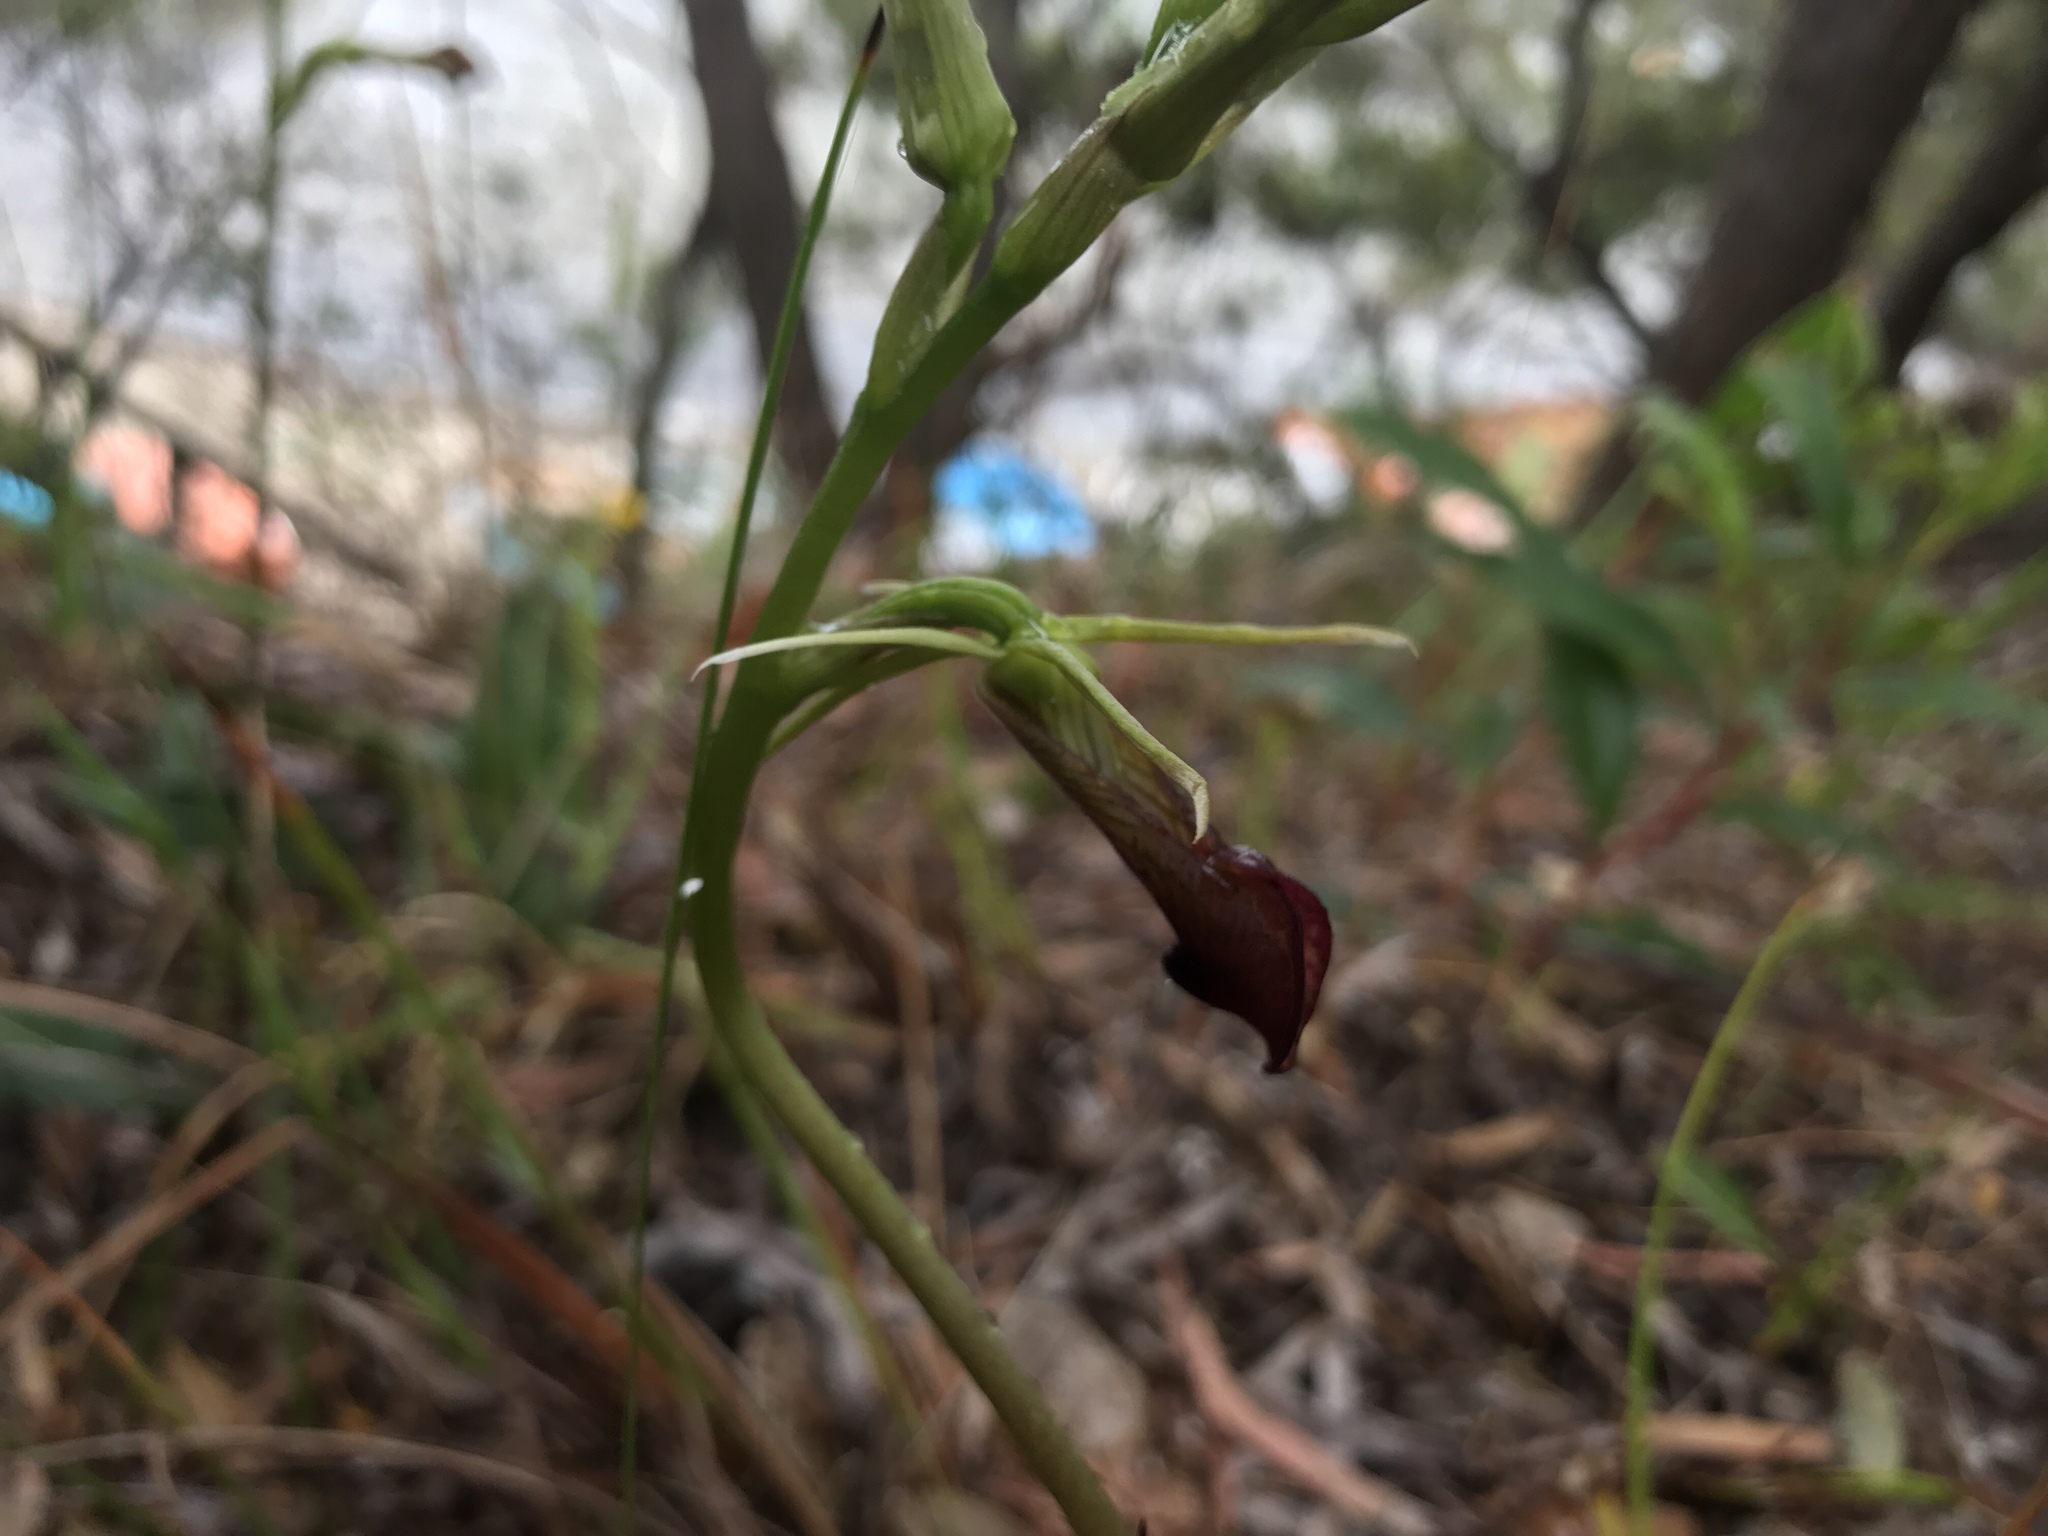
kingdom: Plantae
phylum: Tracheophyta
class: Liliopsida
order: Asparagales
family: Orchidaceae
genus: Cryptostylis
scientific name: Cryptostylis ovata
